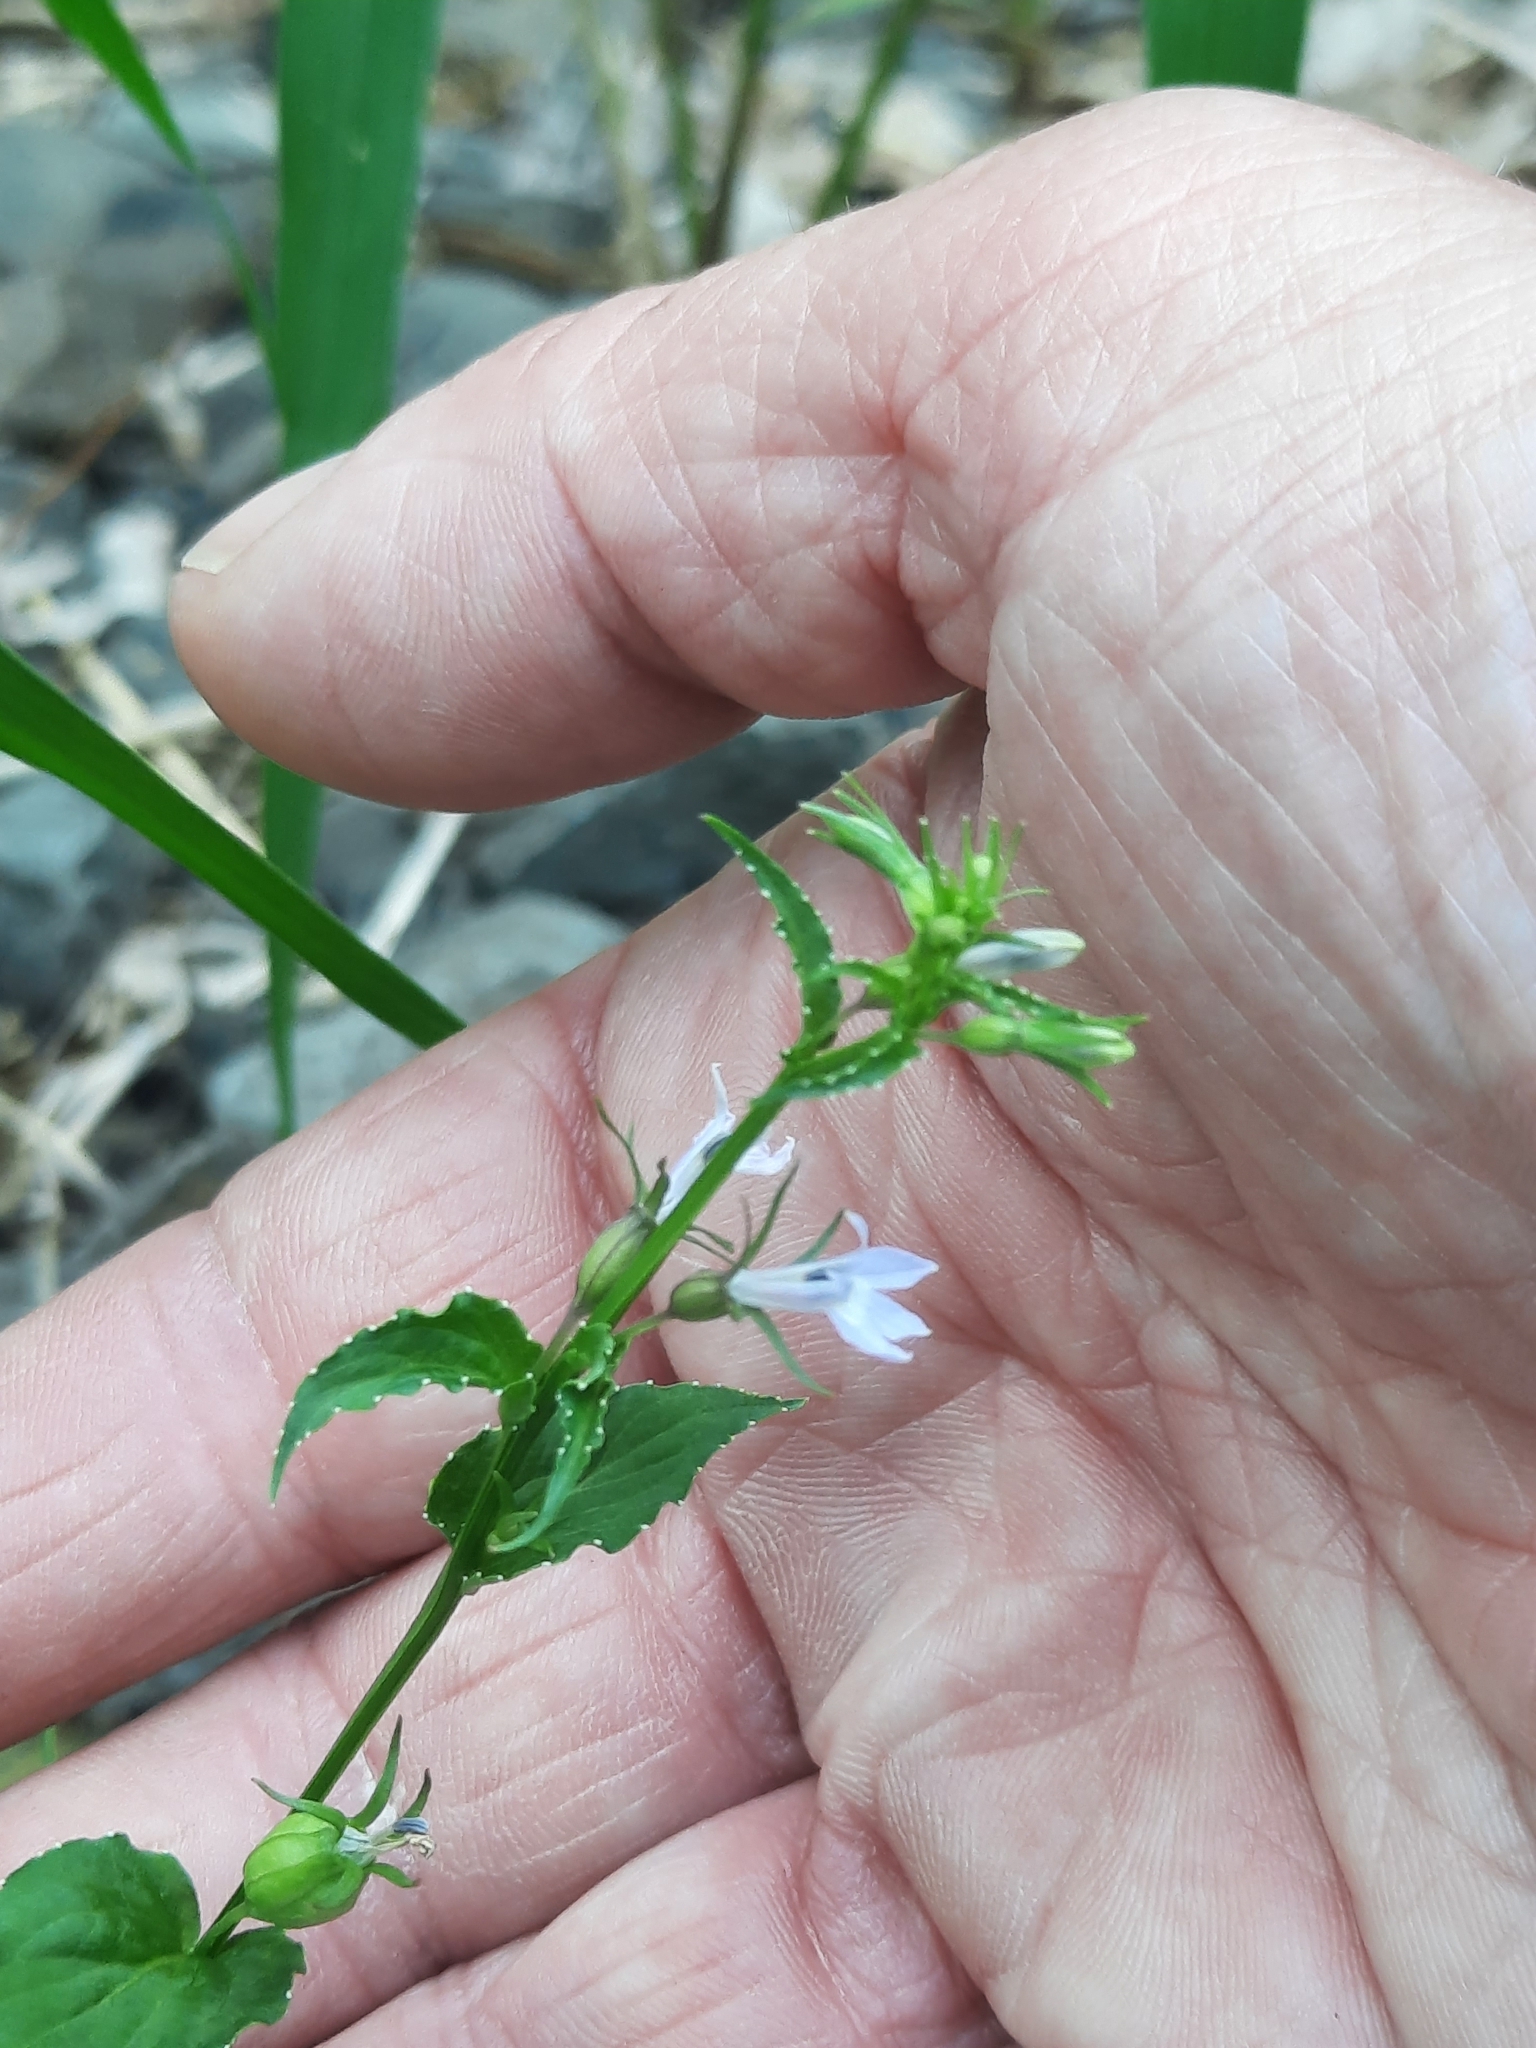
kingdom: Plantae
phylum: Tracheophyta
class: Magnoliopsida
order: Asterales
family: Campanulaceae
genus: Lobelia
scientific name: Lobelia inflata
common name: Indian tobacco
